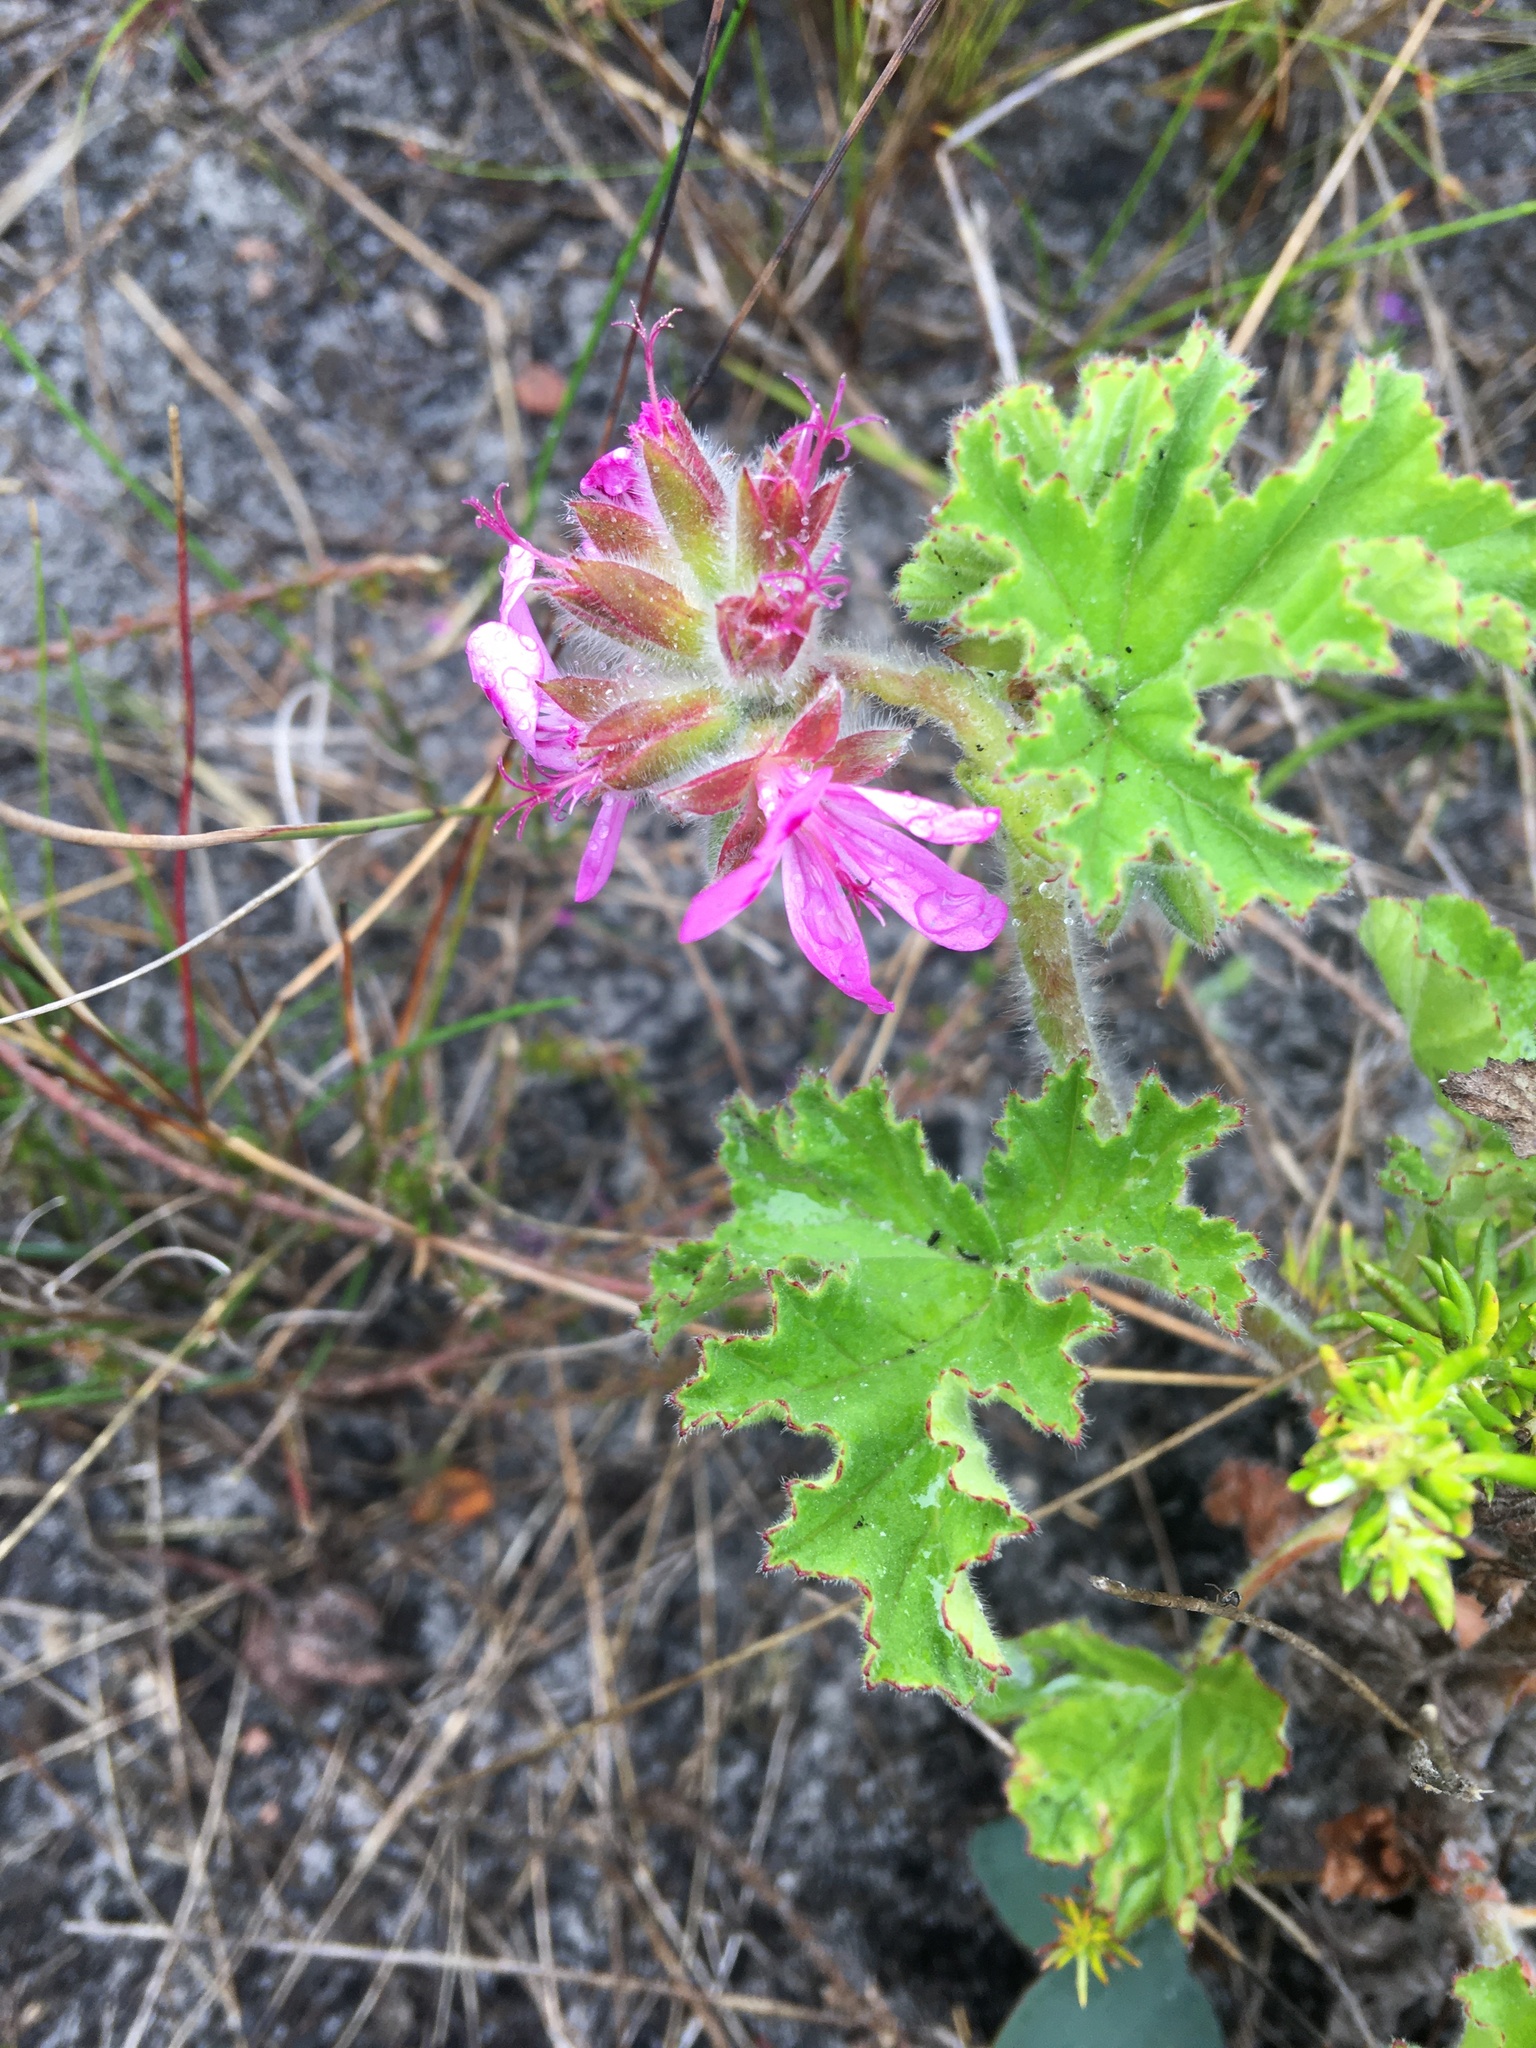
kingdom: Plantae
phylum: Tracheophyta
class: Magnoliopsida
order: Geraniales
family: Geraniaceae
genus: Pelargonium
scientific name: Pelargonium capitatum
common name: Rose scented geranium
